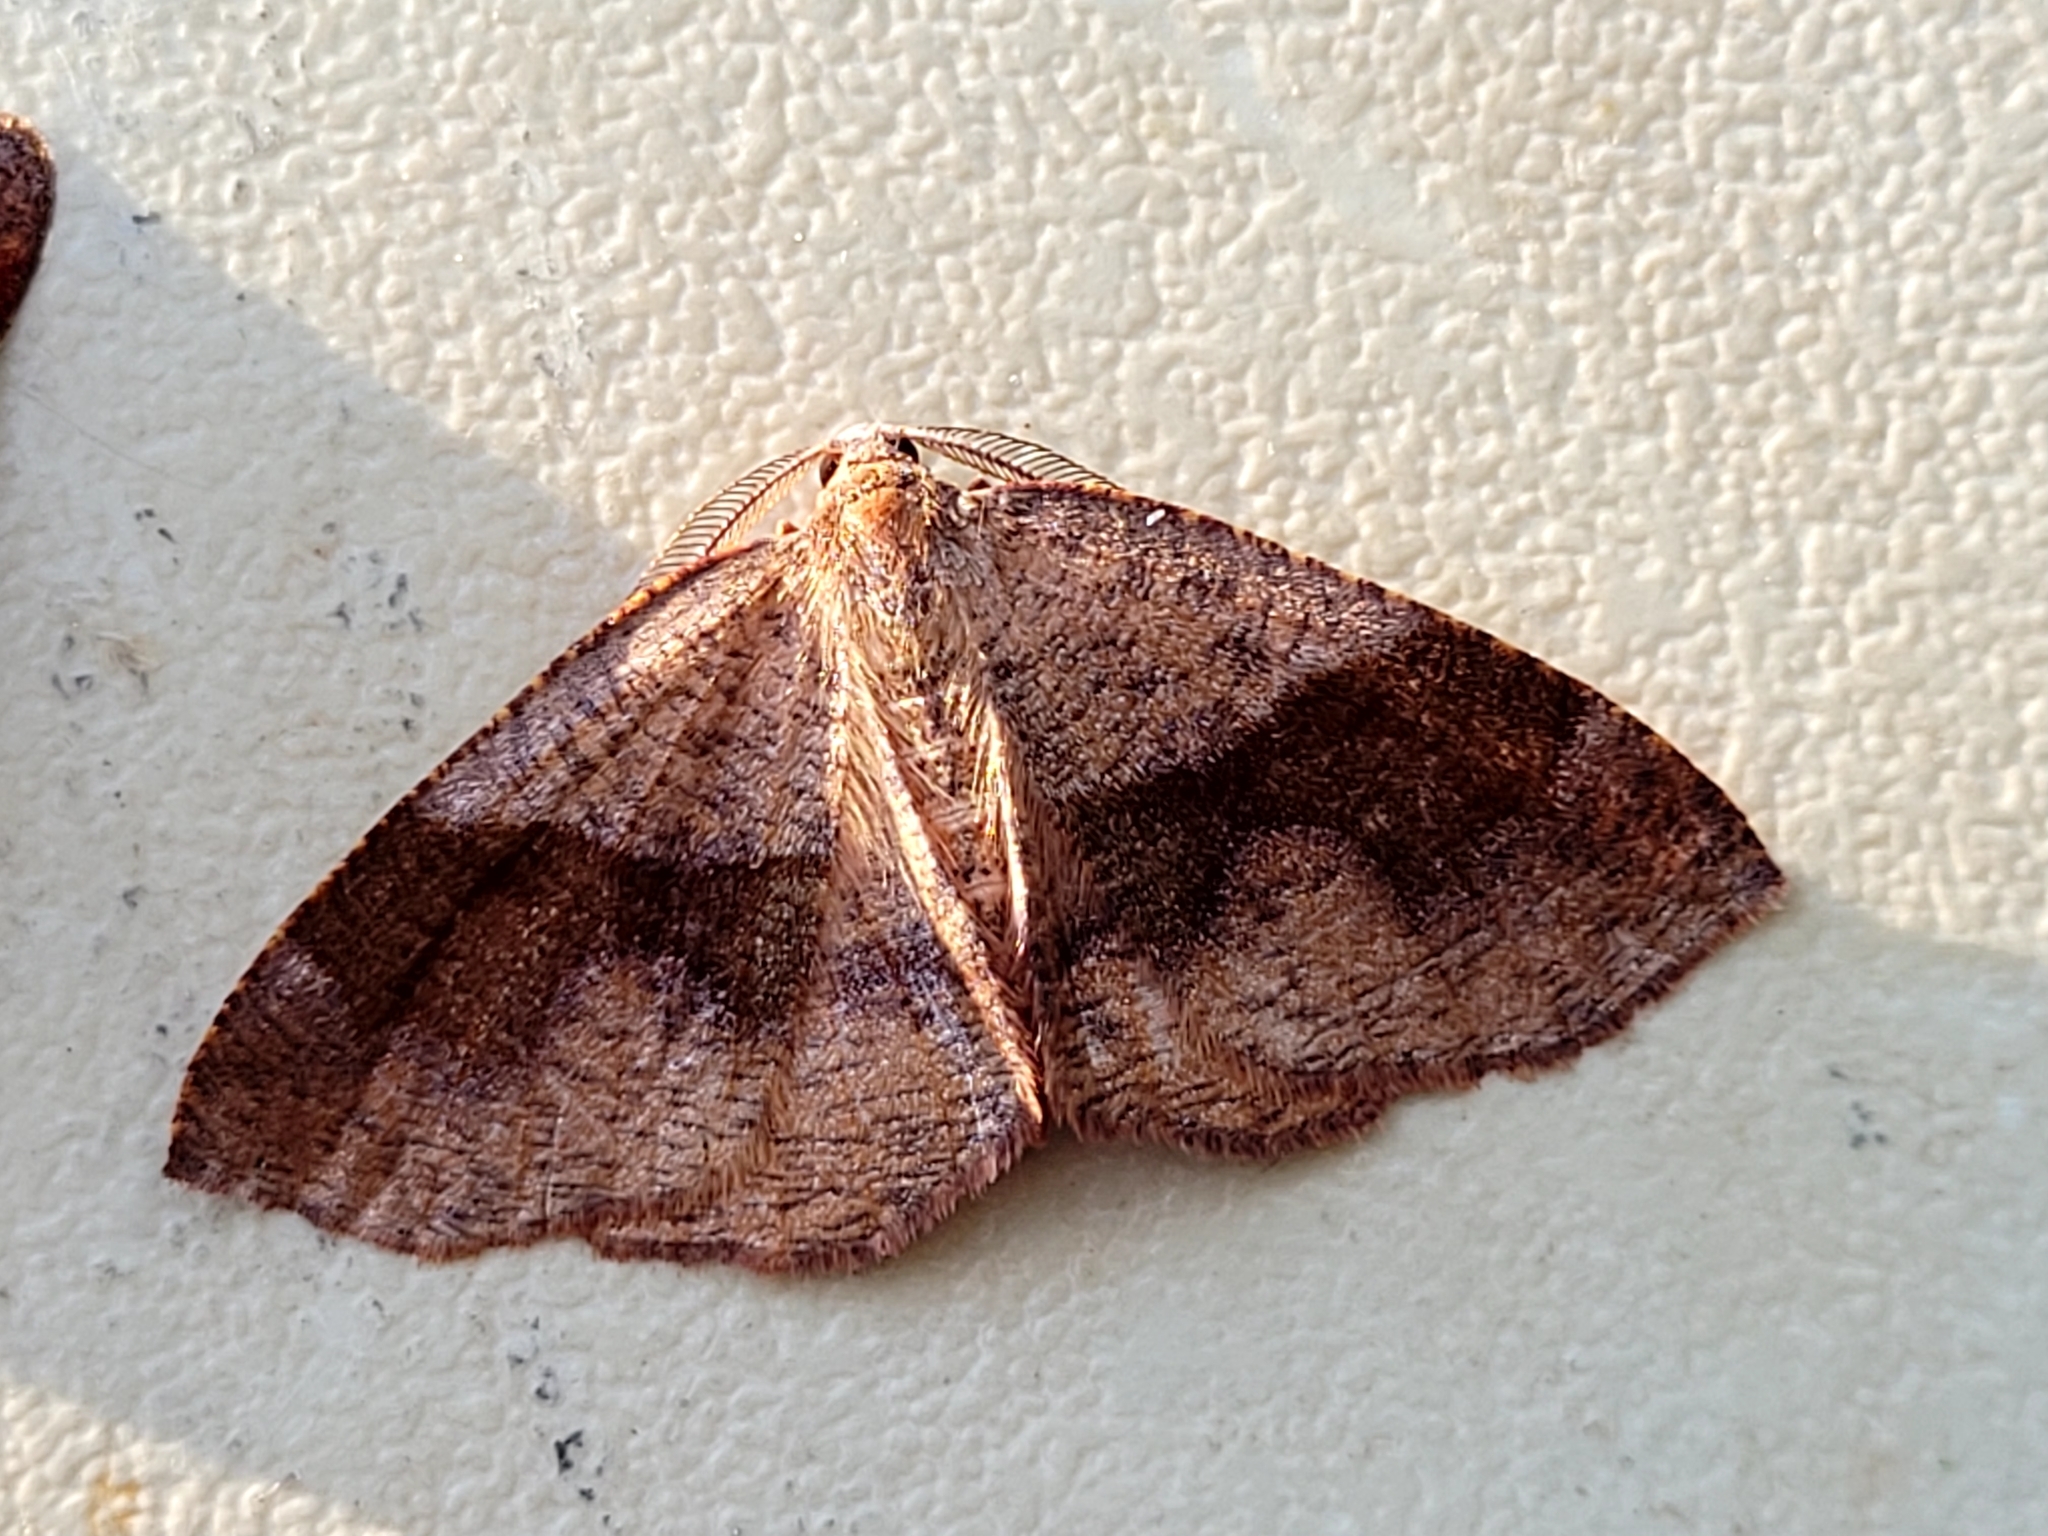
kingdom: Animalia
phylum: Arthropoda
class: Insecta
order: Lepidoptera
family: Geometridae
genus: Plagodis
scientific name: Plagodis pulveraria
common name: Barred umber
